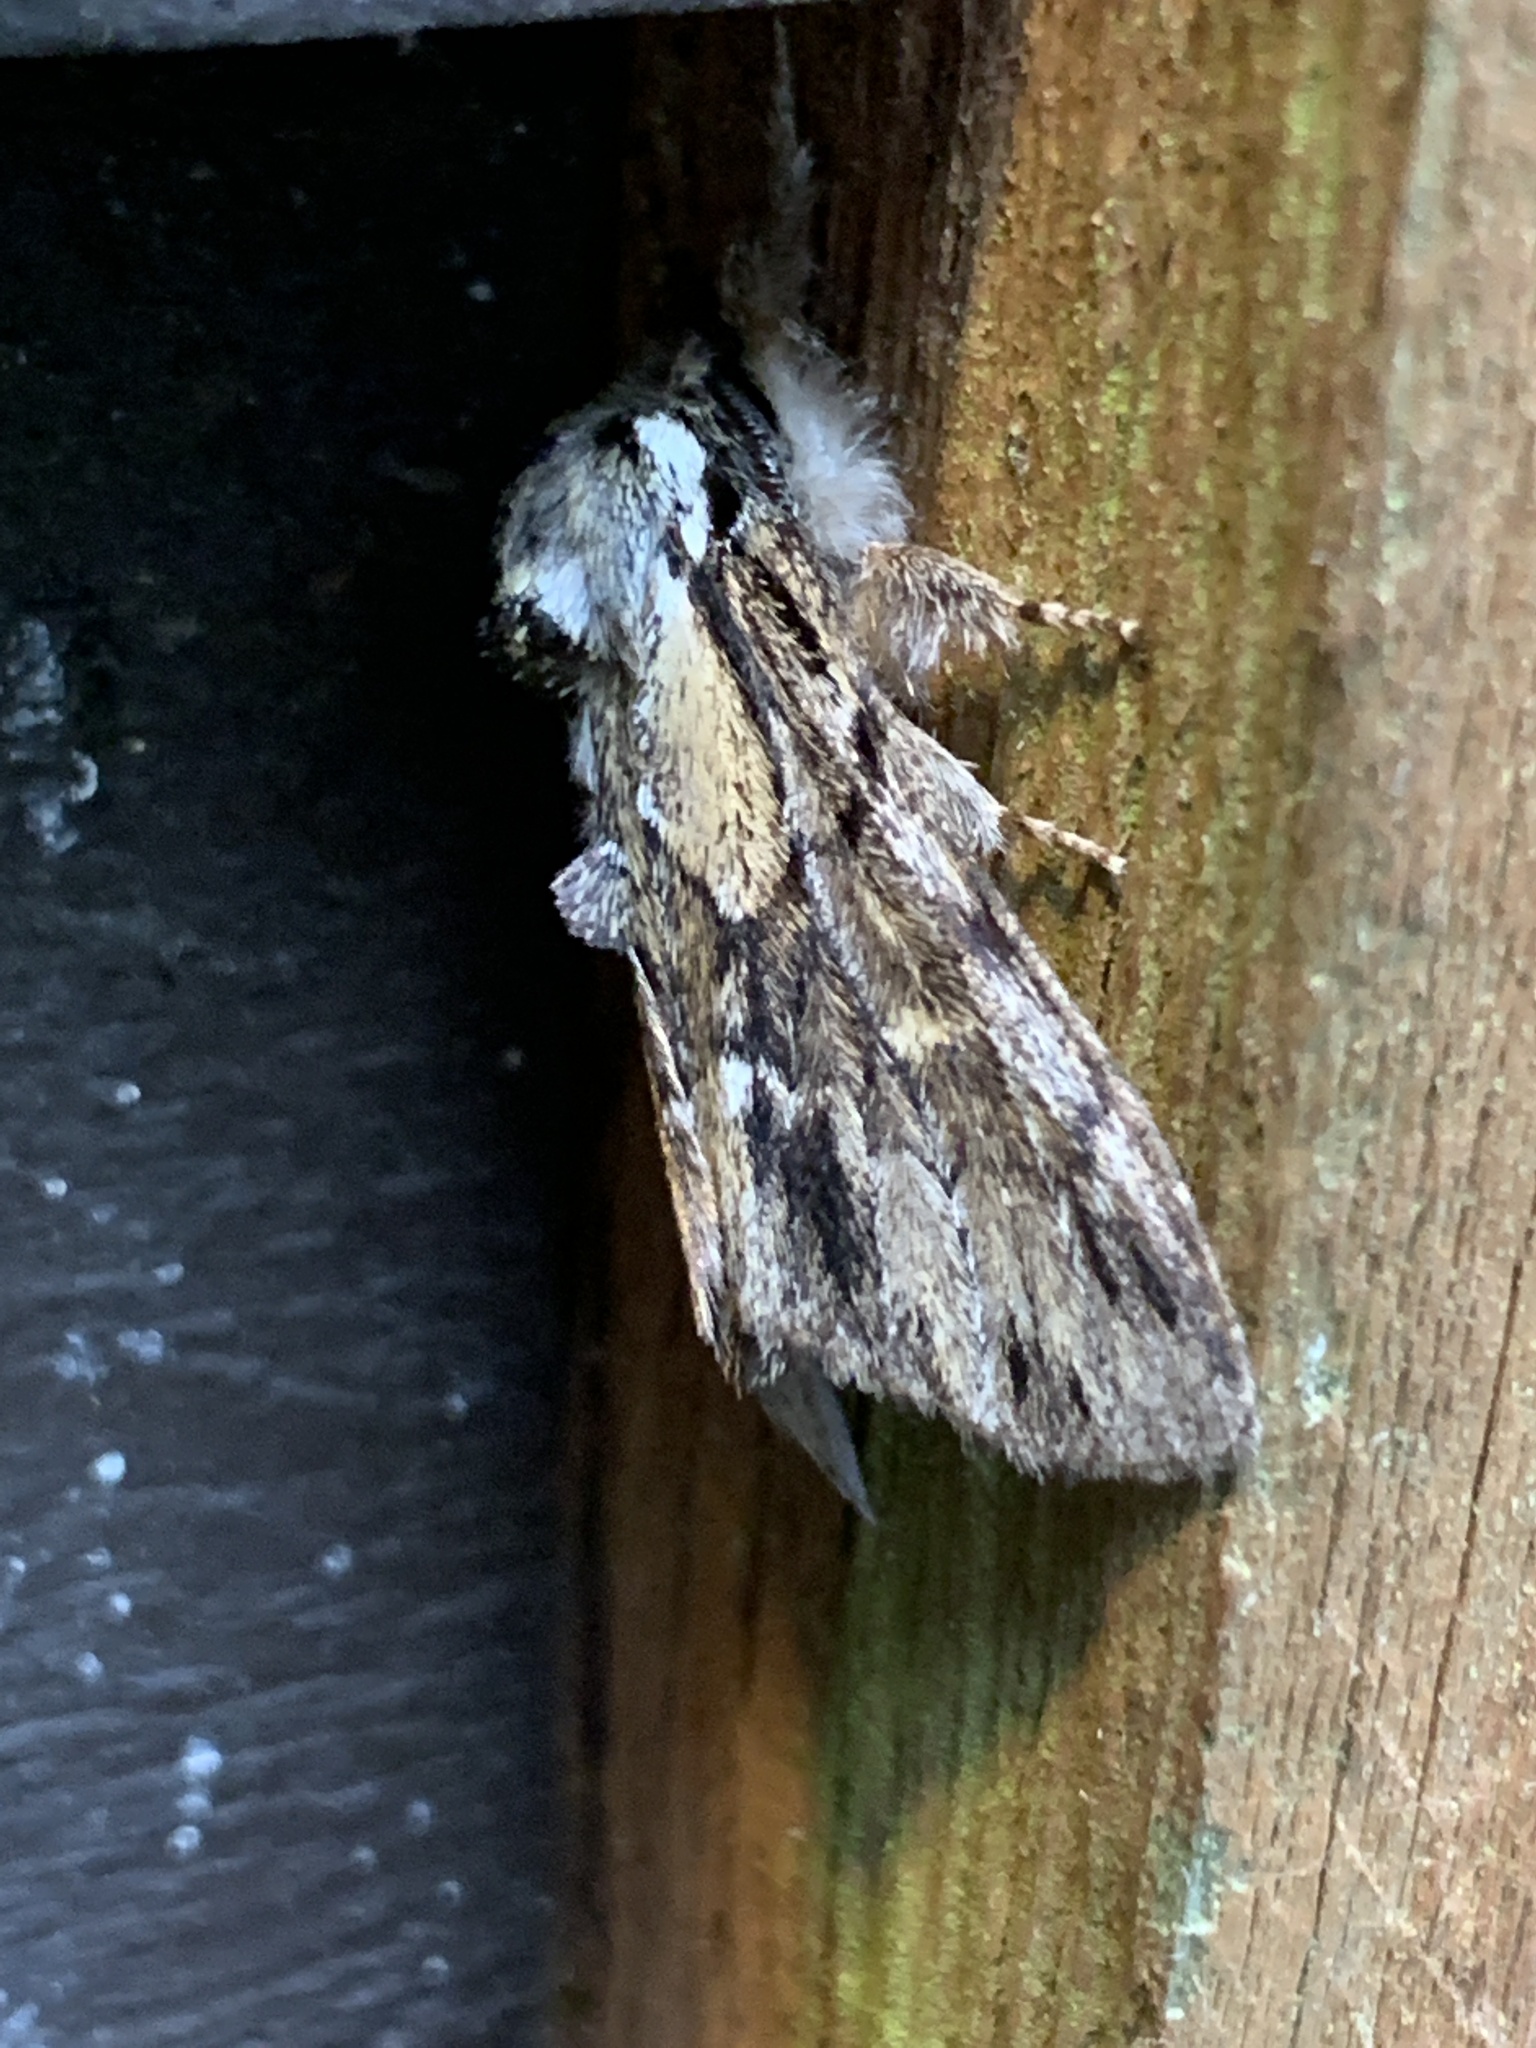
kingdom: Animalia
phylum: Arthropoda
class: Insecta
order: Lepidoptera
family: Notodontidae
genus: Paraeschra
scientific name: Paraeschra georgica
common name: Georgian prominent
